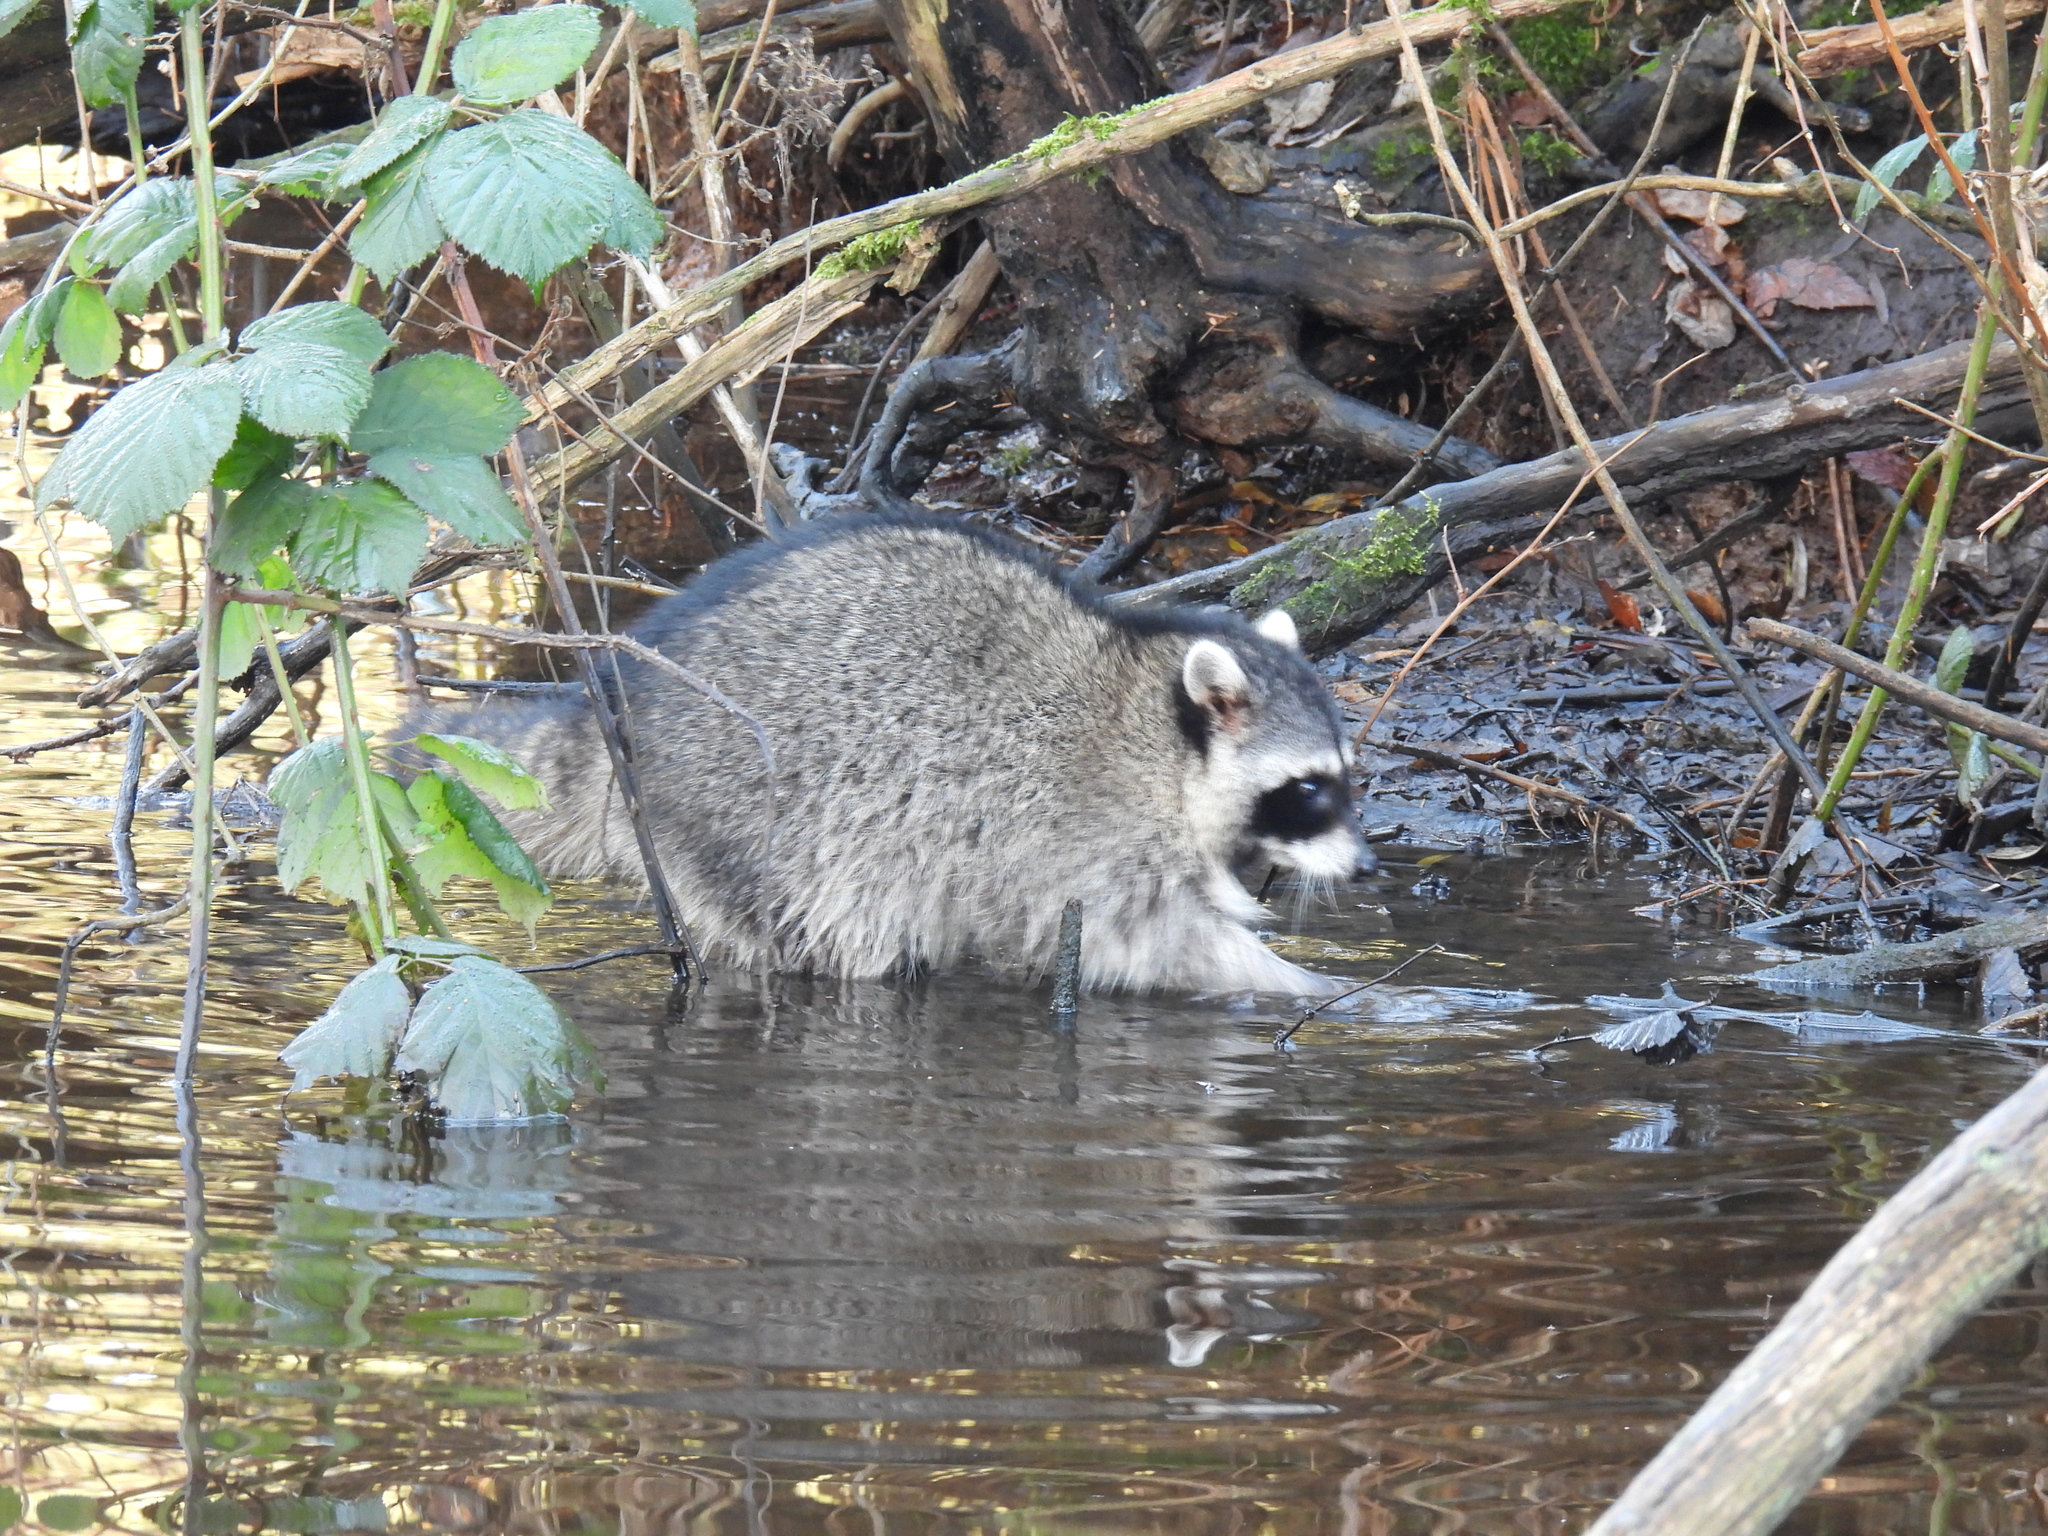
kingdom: Animalia
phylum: Chordata
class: Mammalia
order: Carnivora
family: Procyonidae
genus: Procyon
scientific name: Procyon lotor
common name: Raccoon
